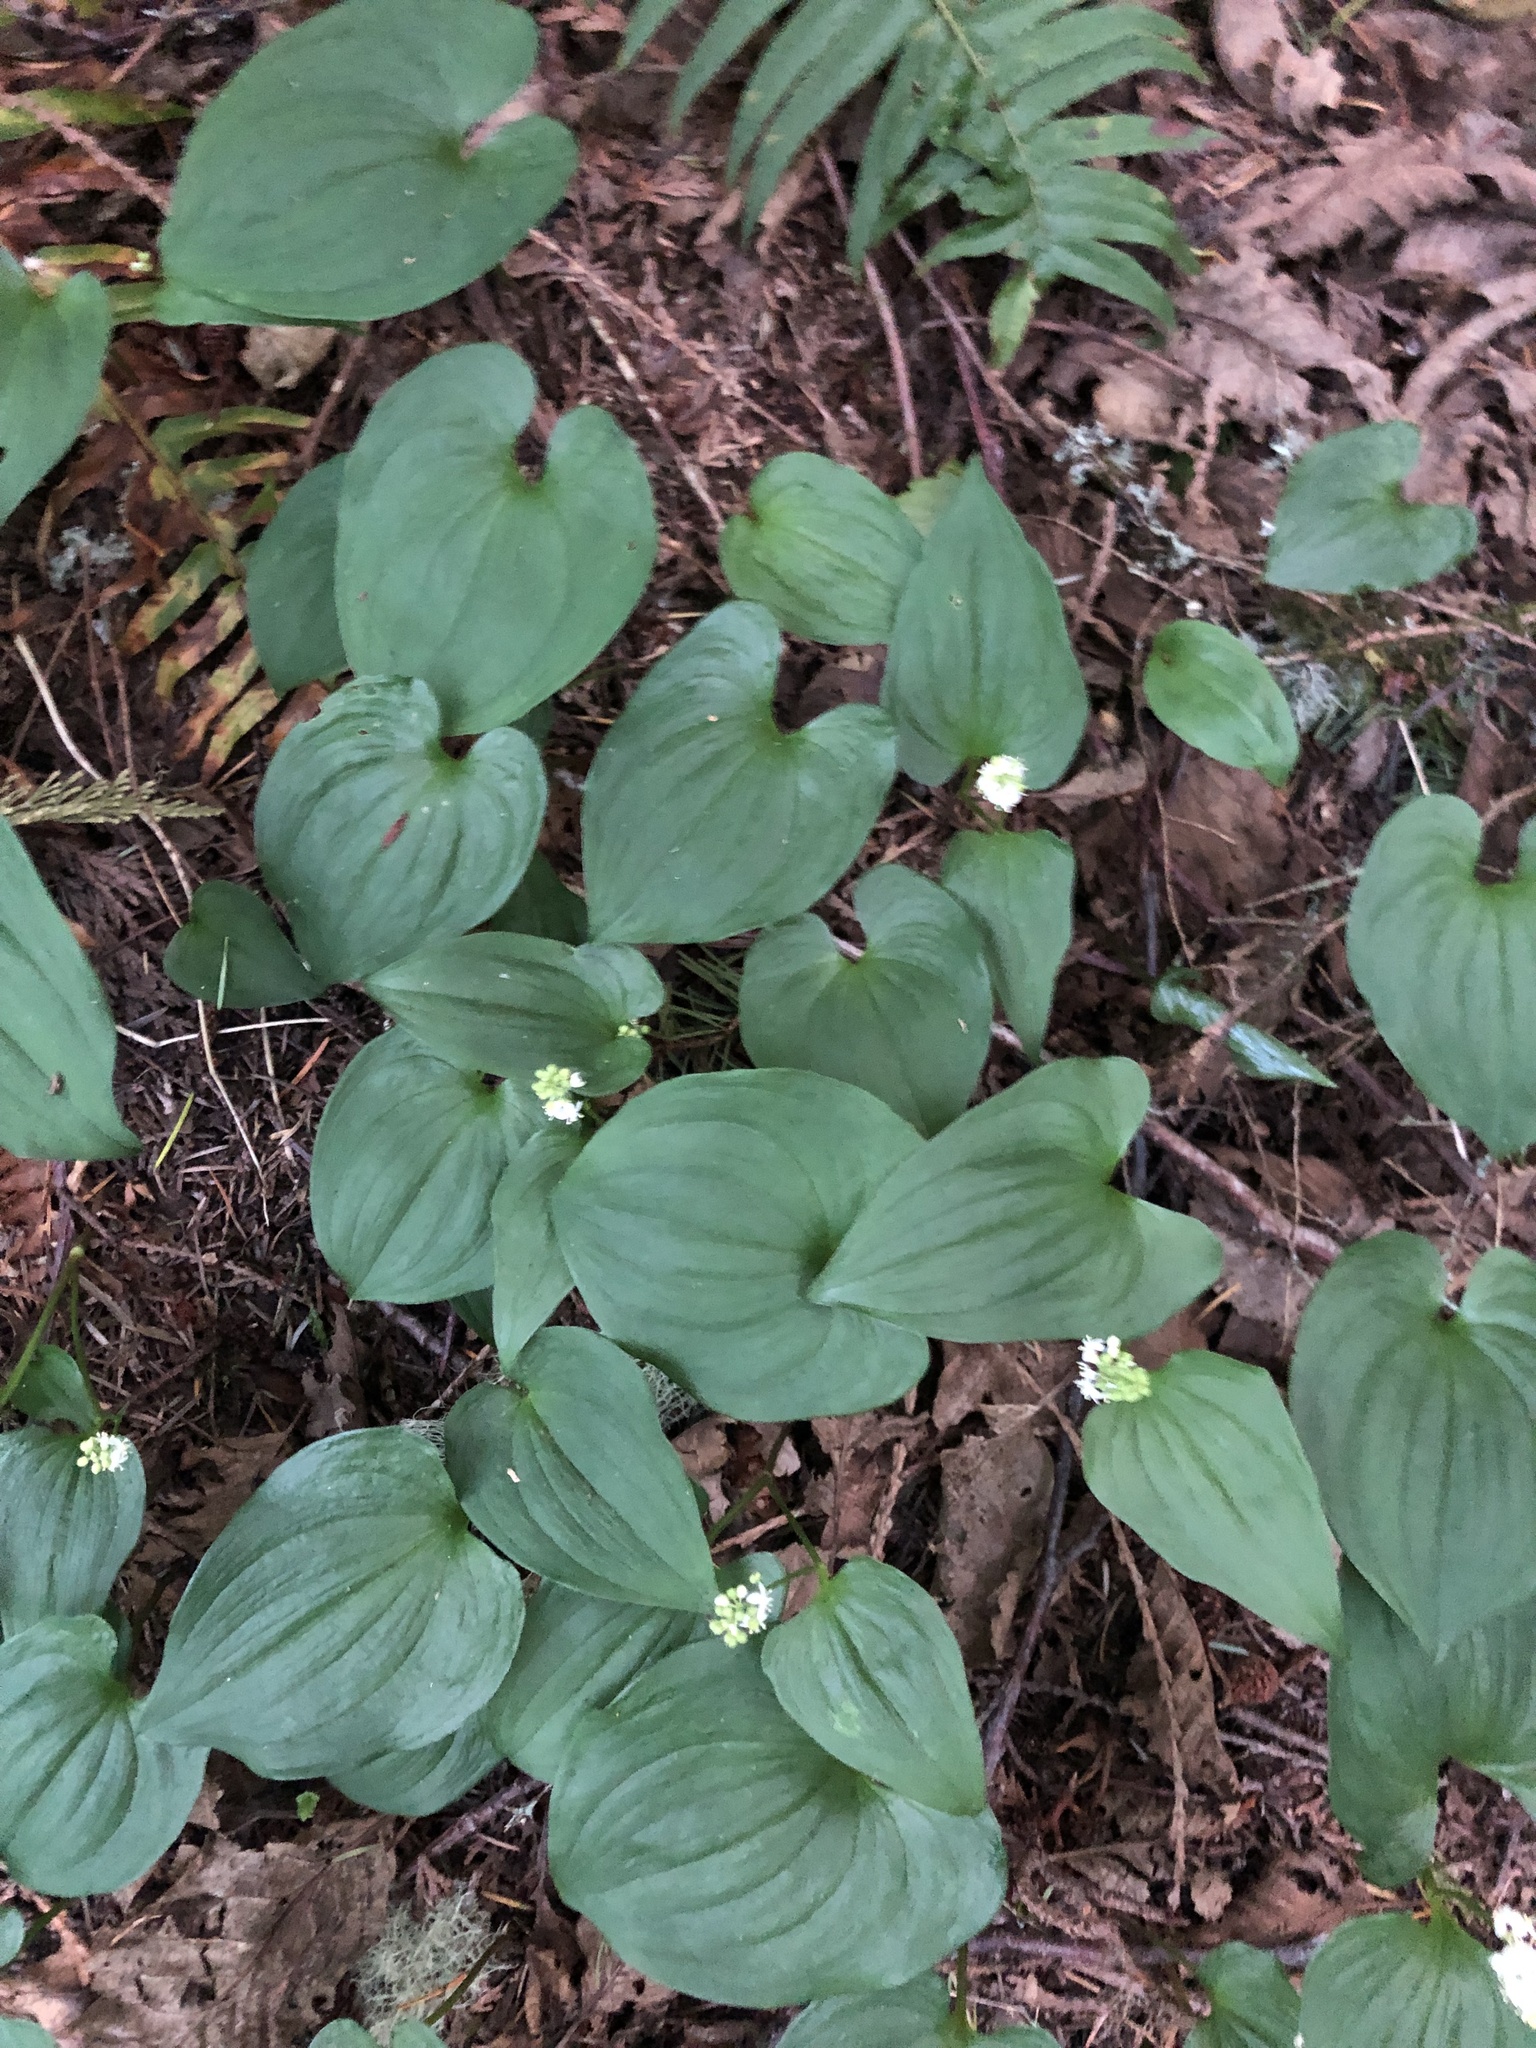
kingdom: Plantae
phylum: Tracheophyta
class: Liliopsida
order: Asparagales
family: Asparagaceae
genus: Maianthemum
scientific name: Maianthemum dilatatum
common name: False lily-of-the-valley
